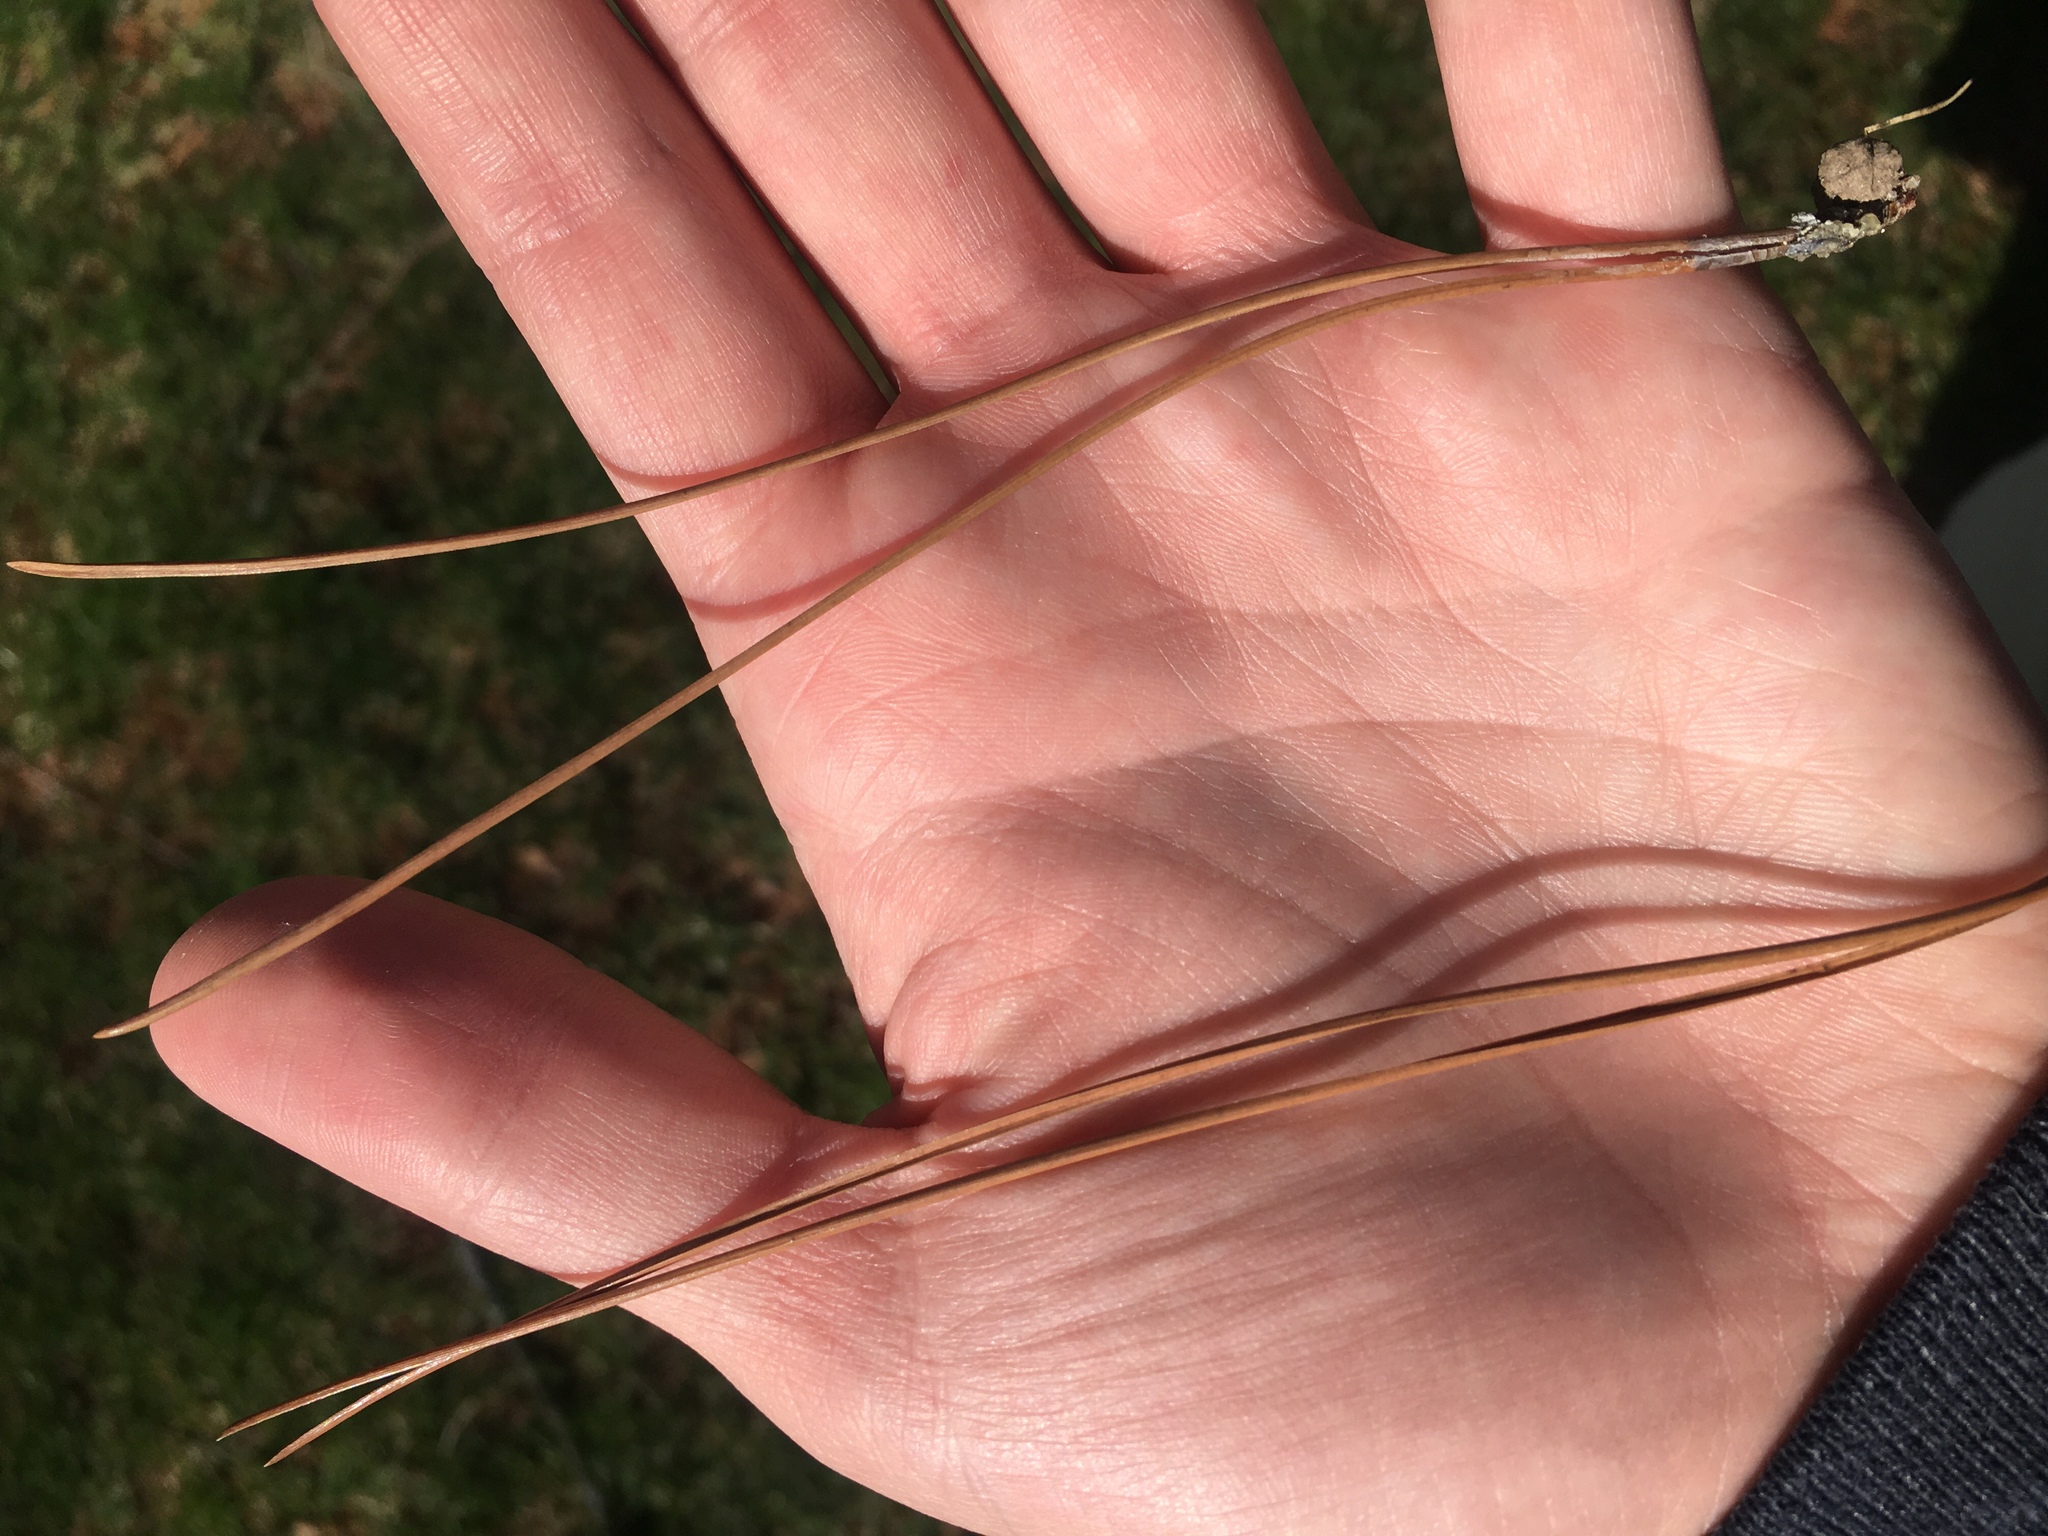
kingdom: Plantae
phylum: Tracheophyta
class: Pinopsida
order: Pinales
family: Pinaceae
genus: Pinus
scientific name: Pinus resinosa
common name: Norway pine
